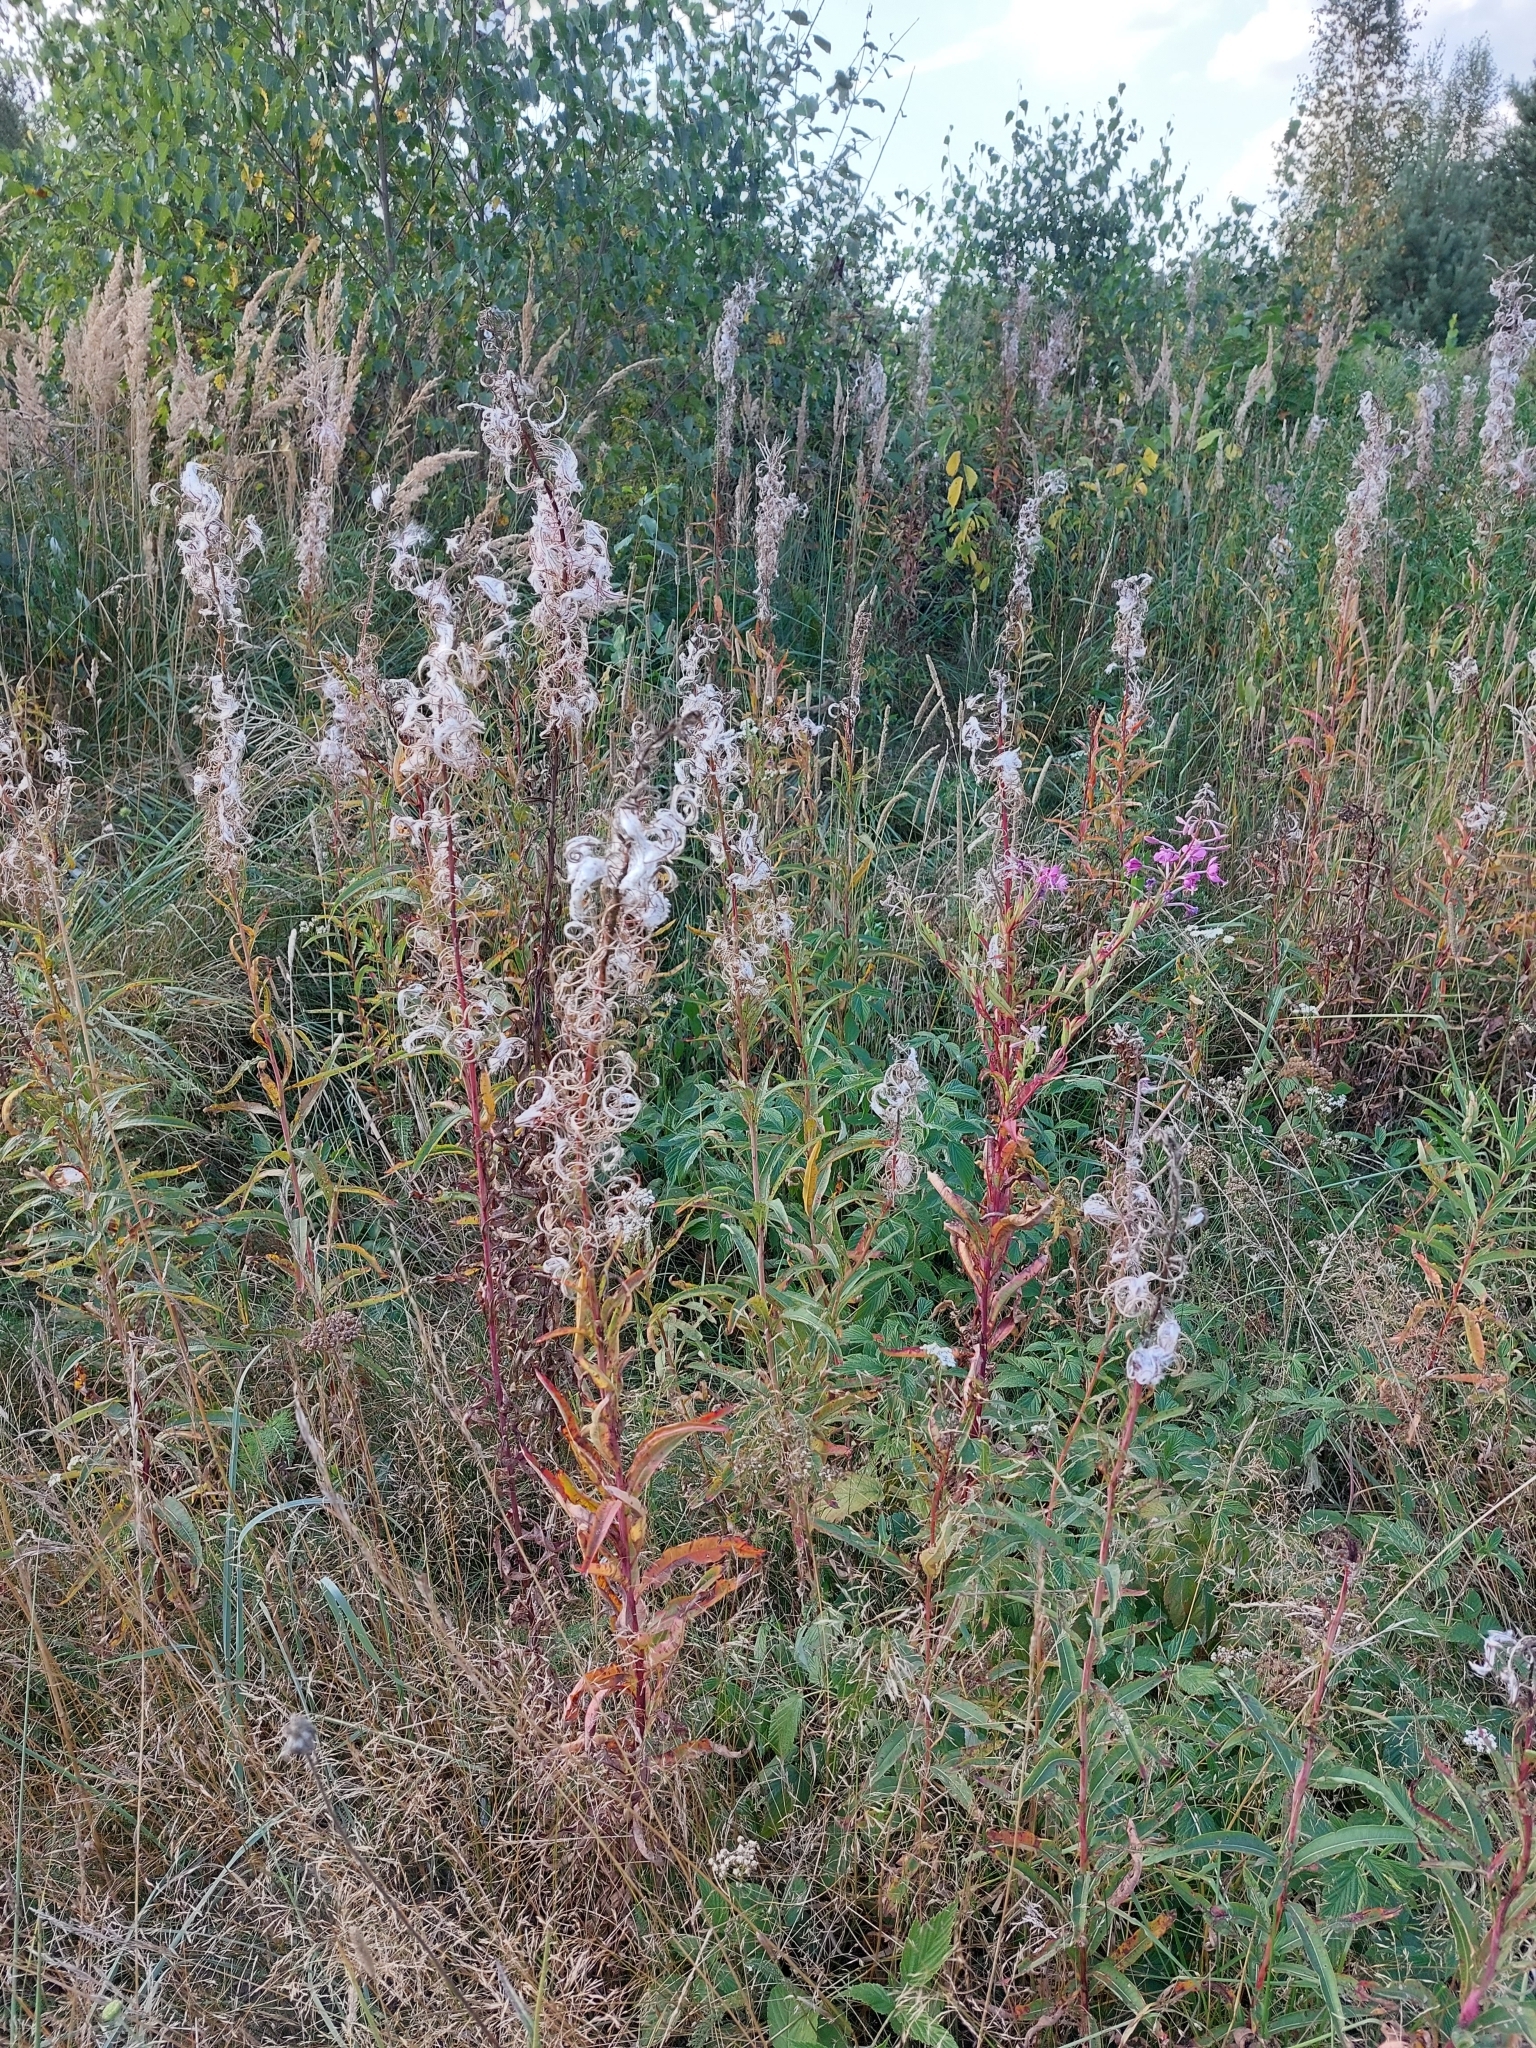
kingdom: Plantae
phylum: Tracheophyta
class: Magnoliopsida
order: Myrtales
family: Onagraceae
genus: Chamaenerion
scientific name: Chamaenerion angustifolium
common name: Fireweed
